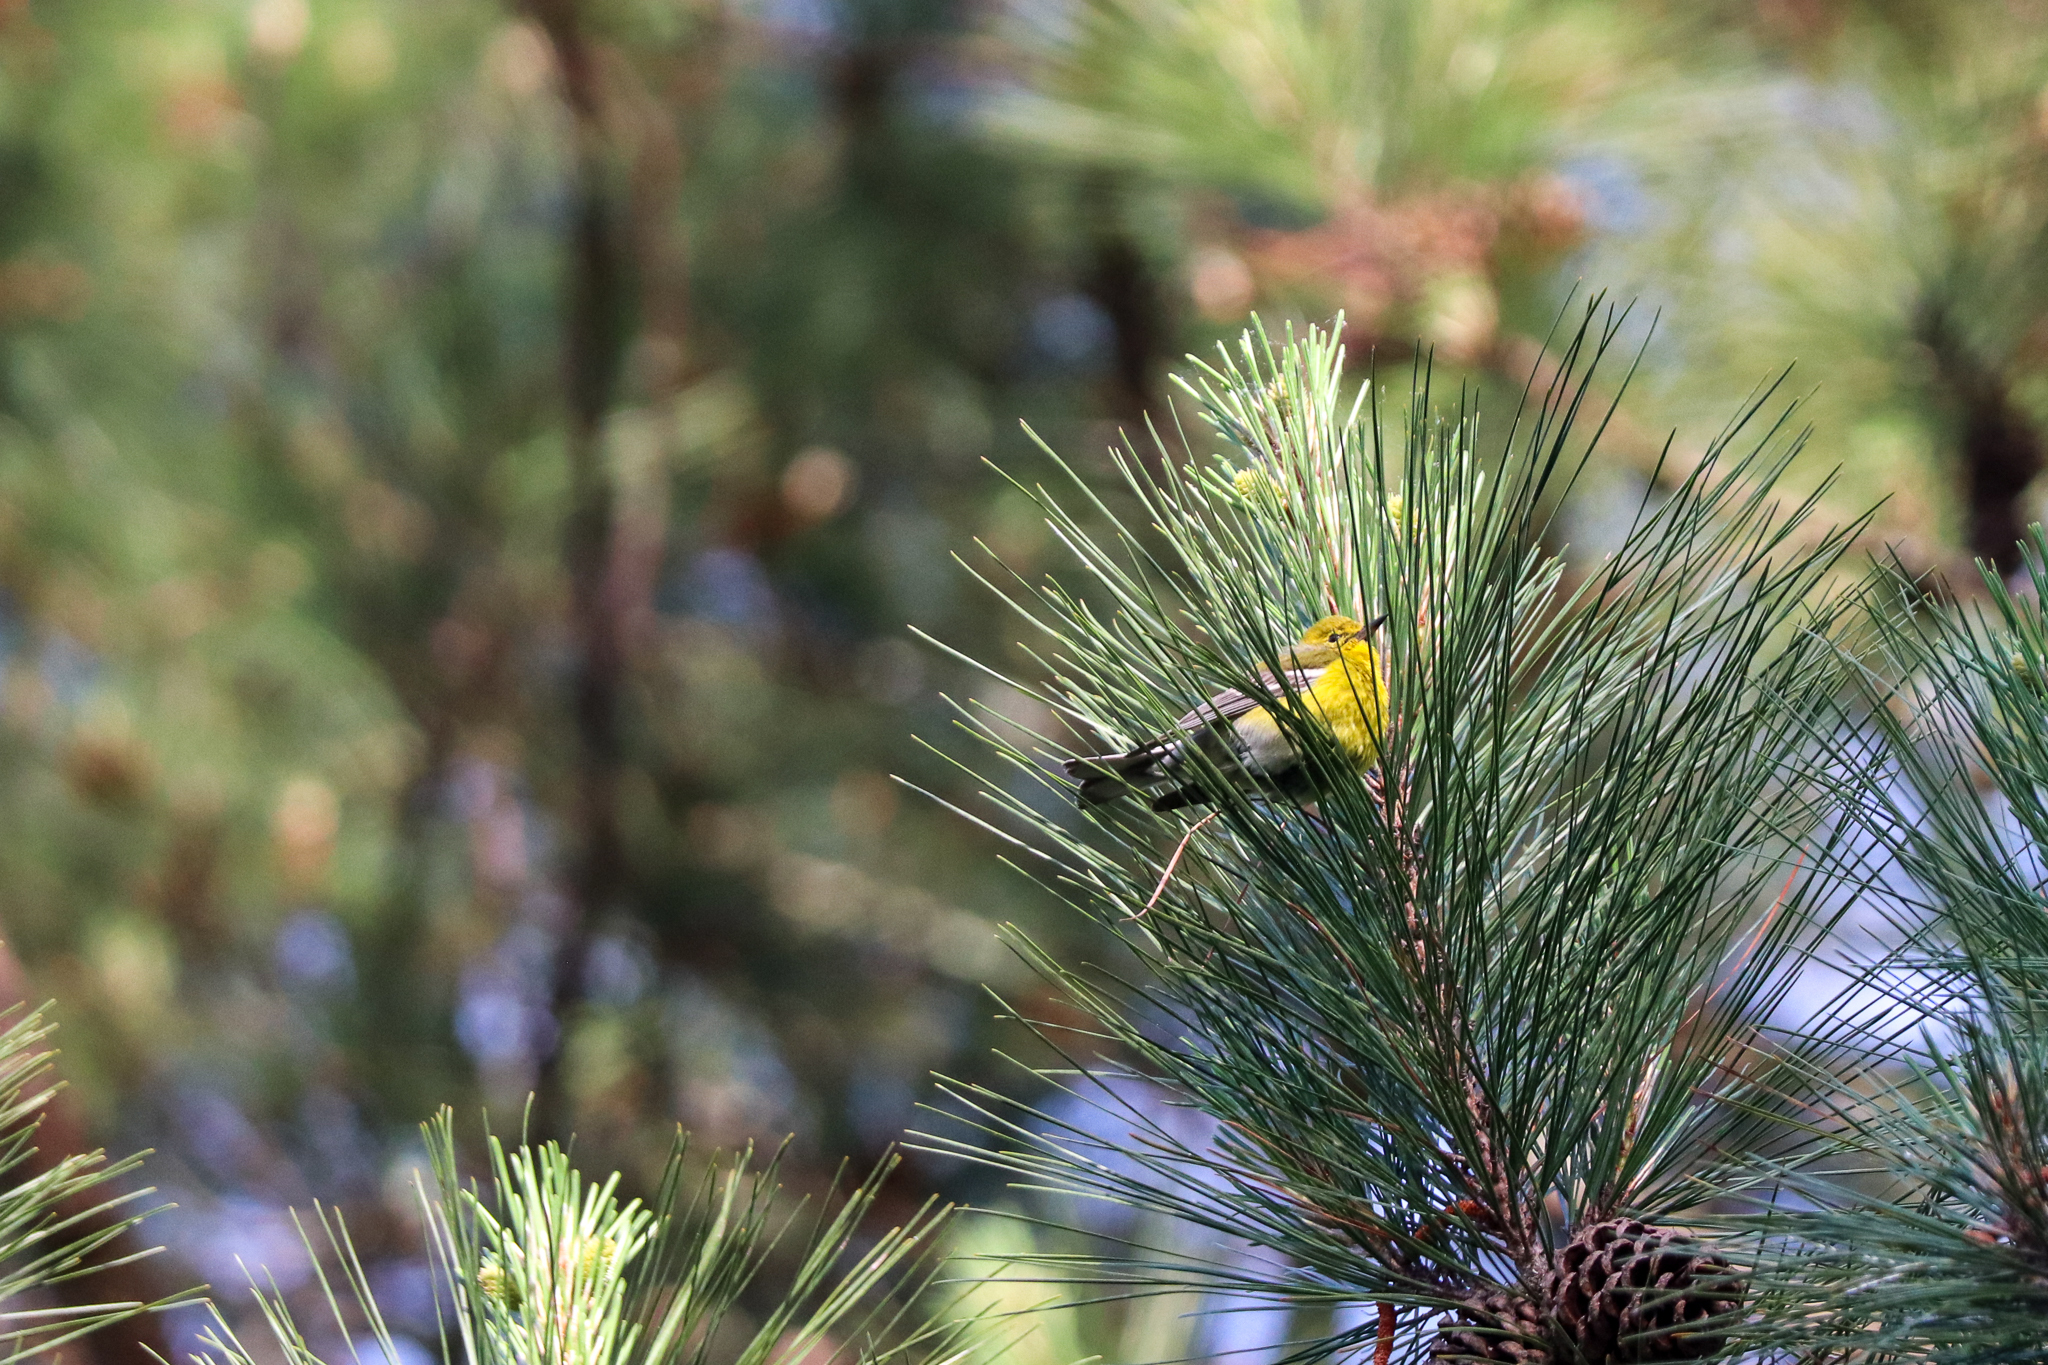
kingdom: Animalia
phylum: Chordata
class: Aves
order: Passeriformes
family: Parulidae
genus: Setophaga
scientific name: Setophaga pinus
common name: Pine warbler
